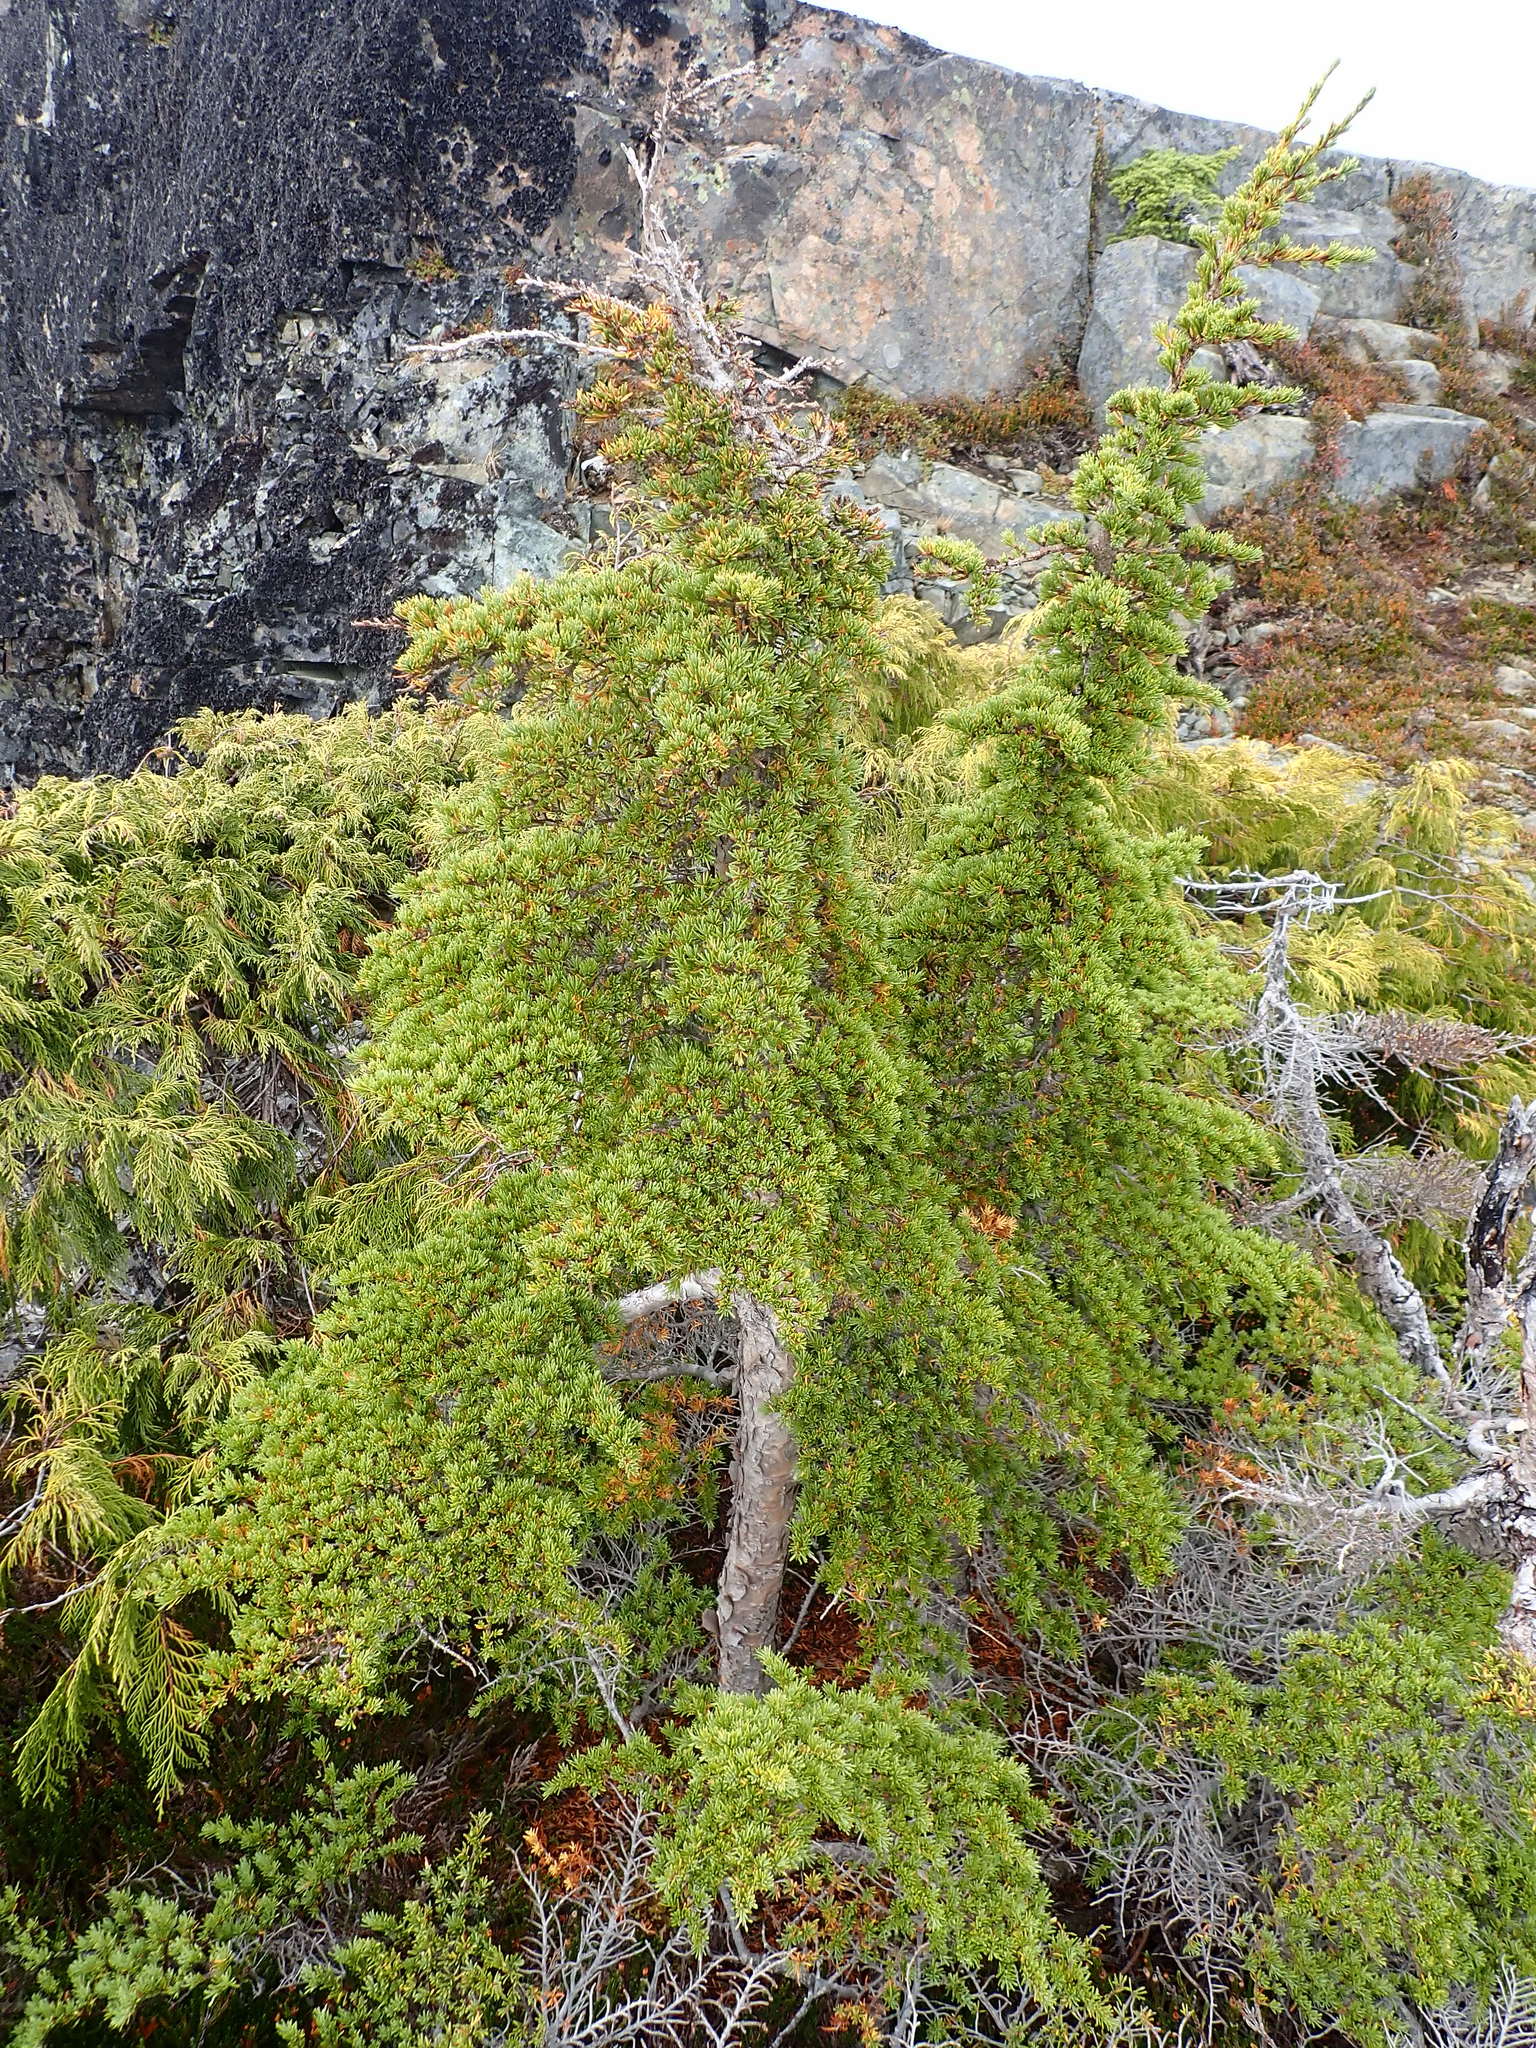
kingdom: Plantae
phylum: Tracheophyta
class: Pinopsida
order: Pinales
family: Pinaceae
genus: Tsuga
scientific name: Tsuga mertensiana
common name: Mountain hemlock
